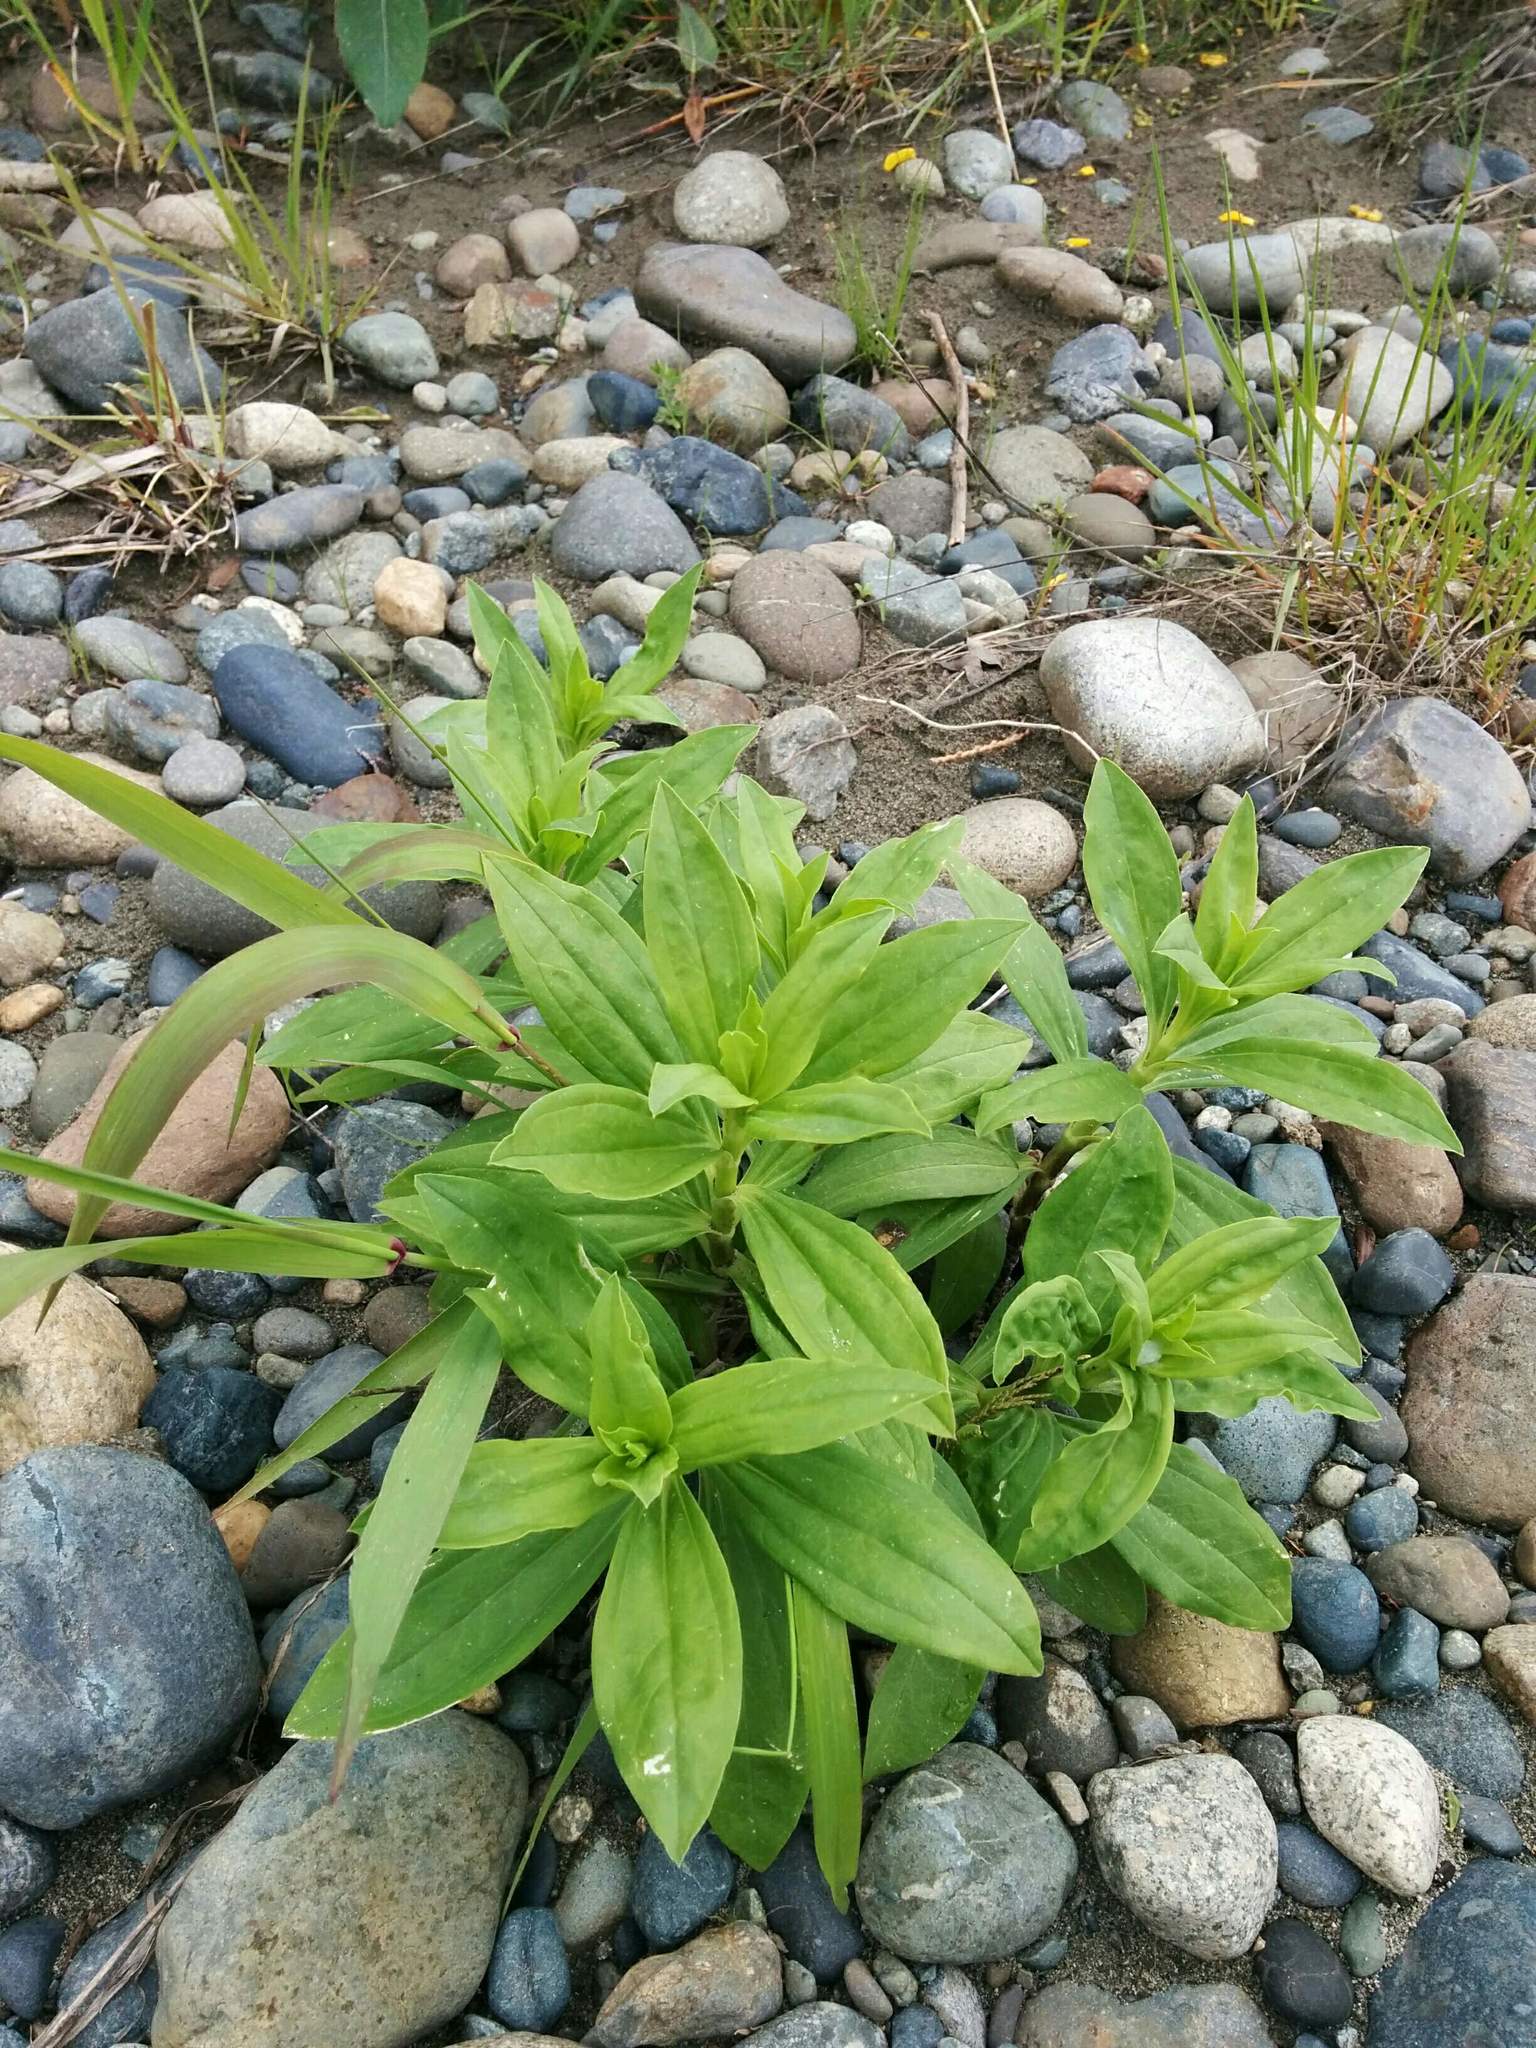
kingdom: Plantae
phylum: Tracheophyta
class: Magnoliopsida
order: Caryophyllales
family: Caryophyllaceae
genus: Saponaria
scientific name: Saponaria officinalis
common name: Soapwort
